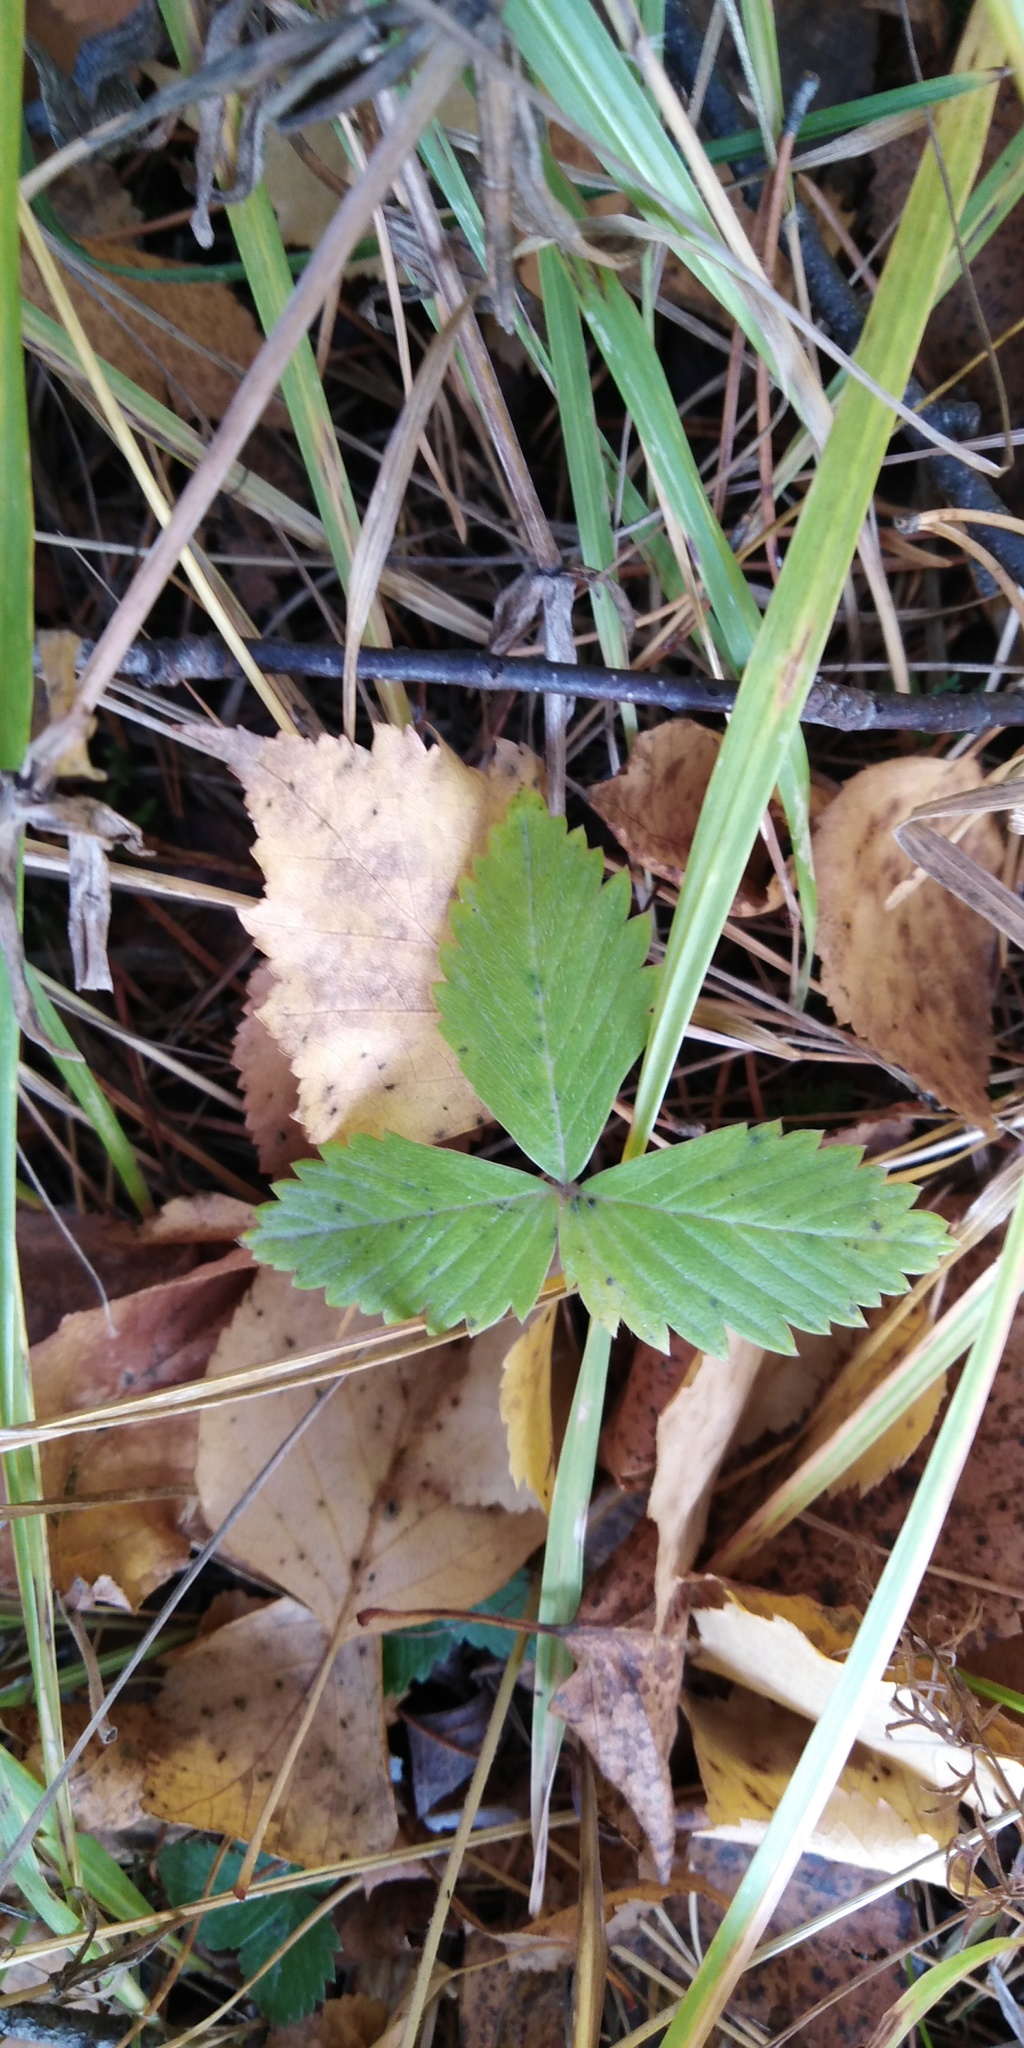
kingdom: Plantae
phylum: Tracheophyta
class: Magnoliopsida
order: Rosales
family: Rosaceae
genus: Fragaria
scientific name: Fragaria vesca
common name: Wild strawberry
